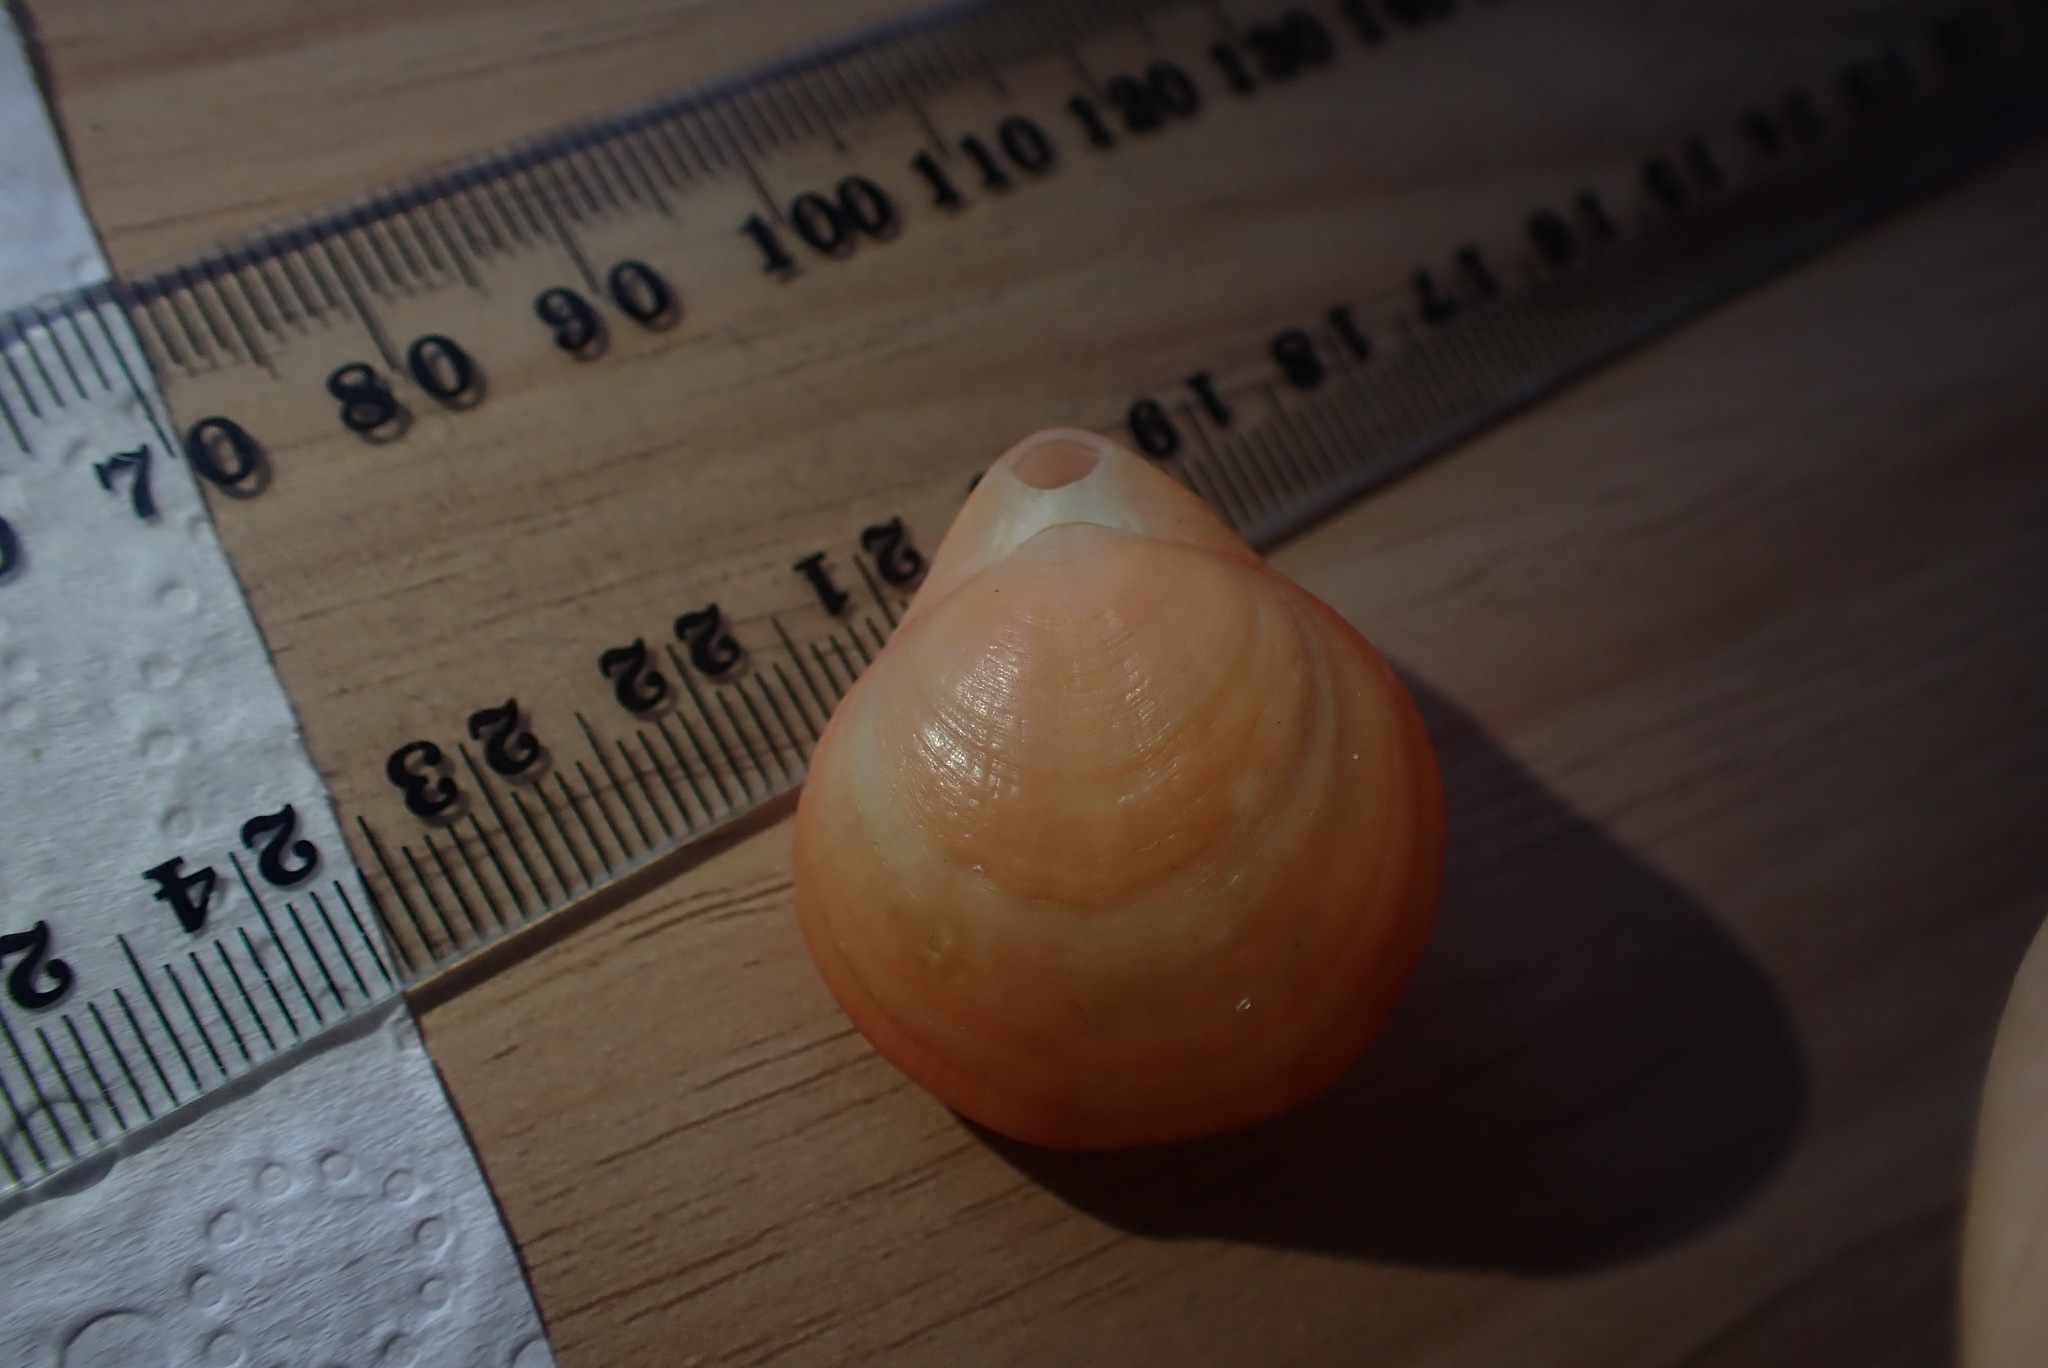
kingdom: Animalia
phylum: Brachiopoda
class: Rhynchonellata
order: Terebratulida
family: Terebratellidae
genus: Magasella
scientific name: Magasella sanguinea
